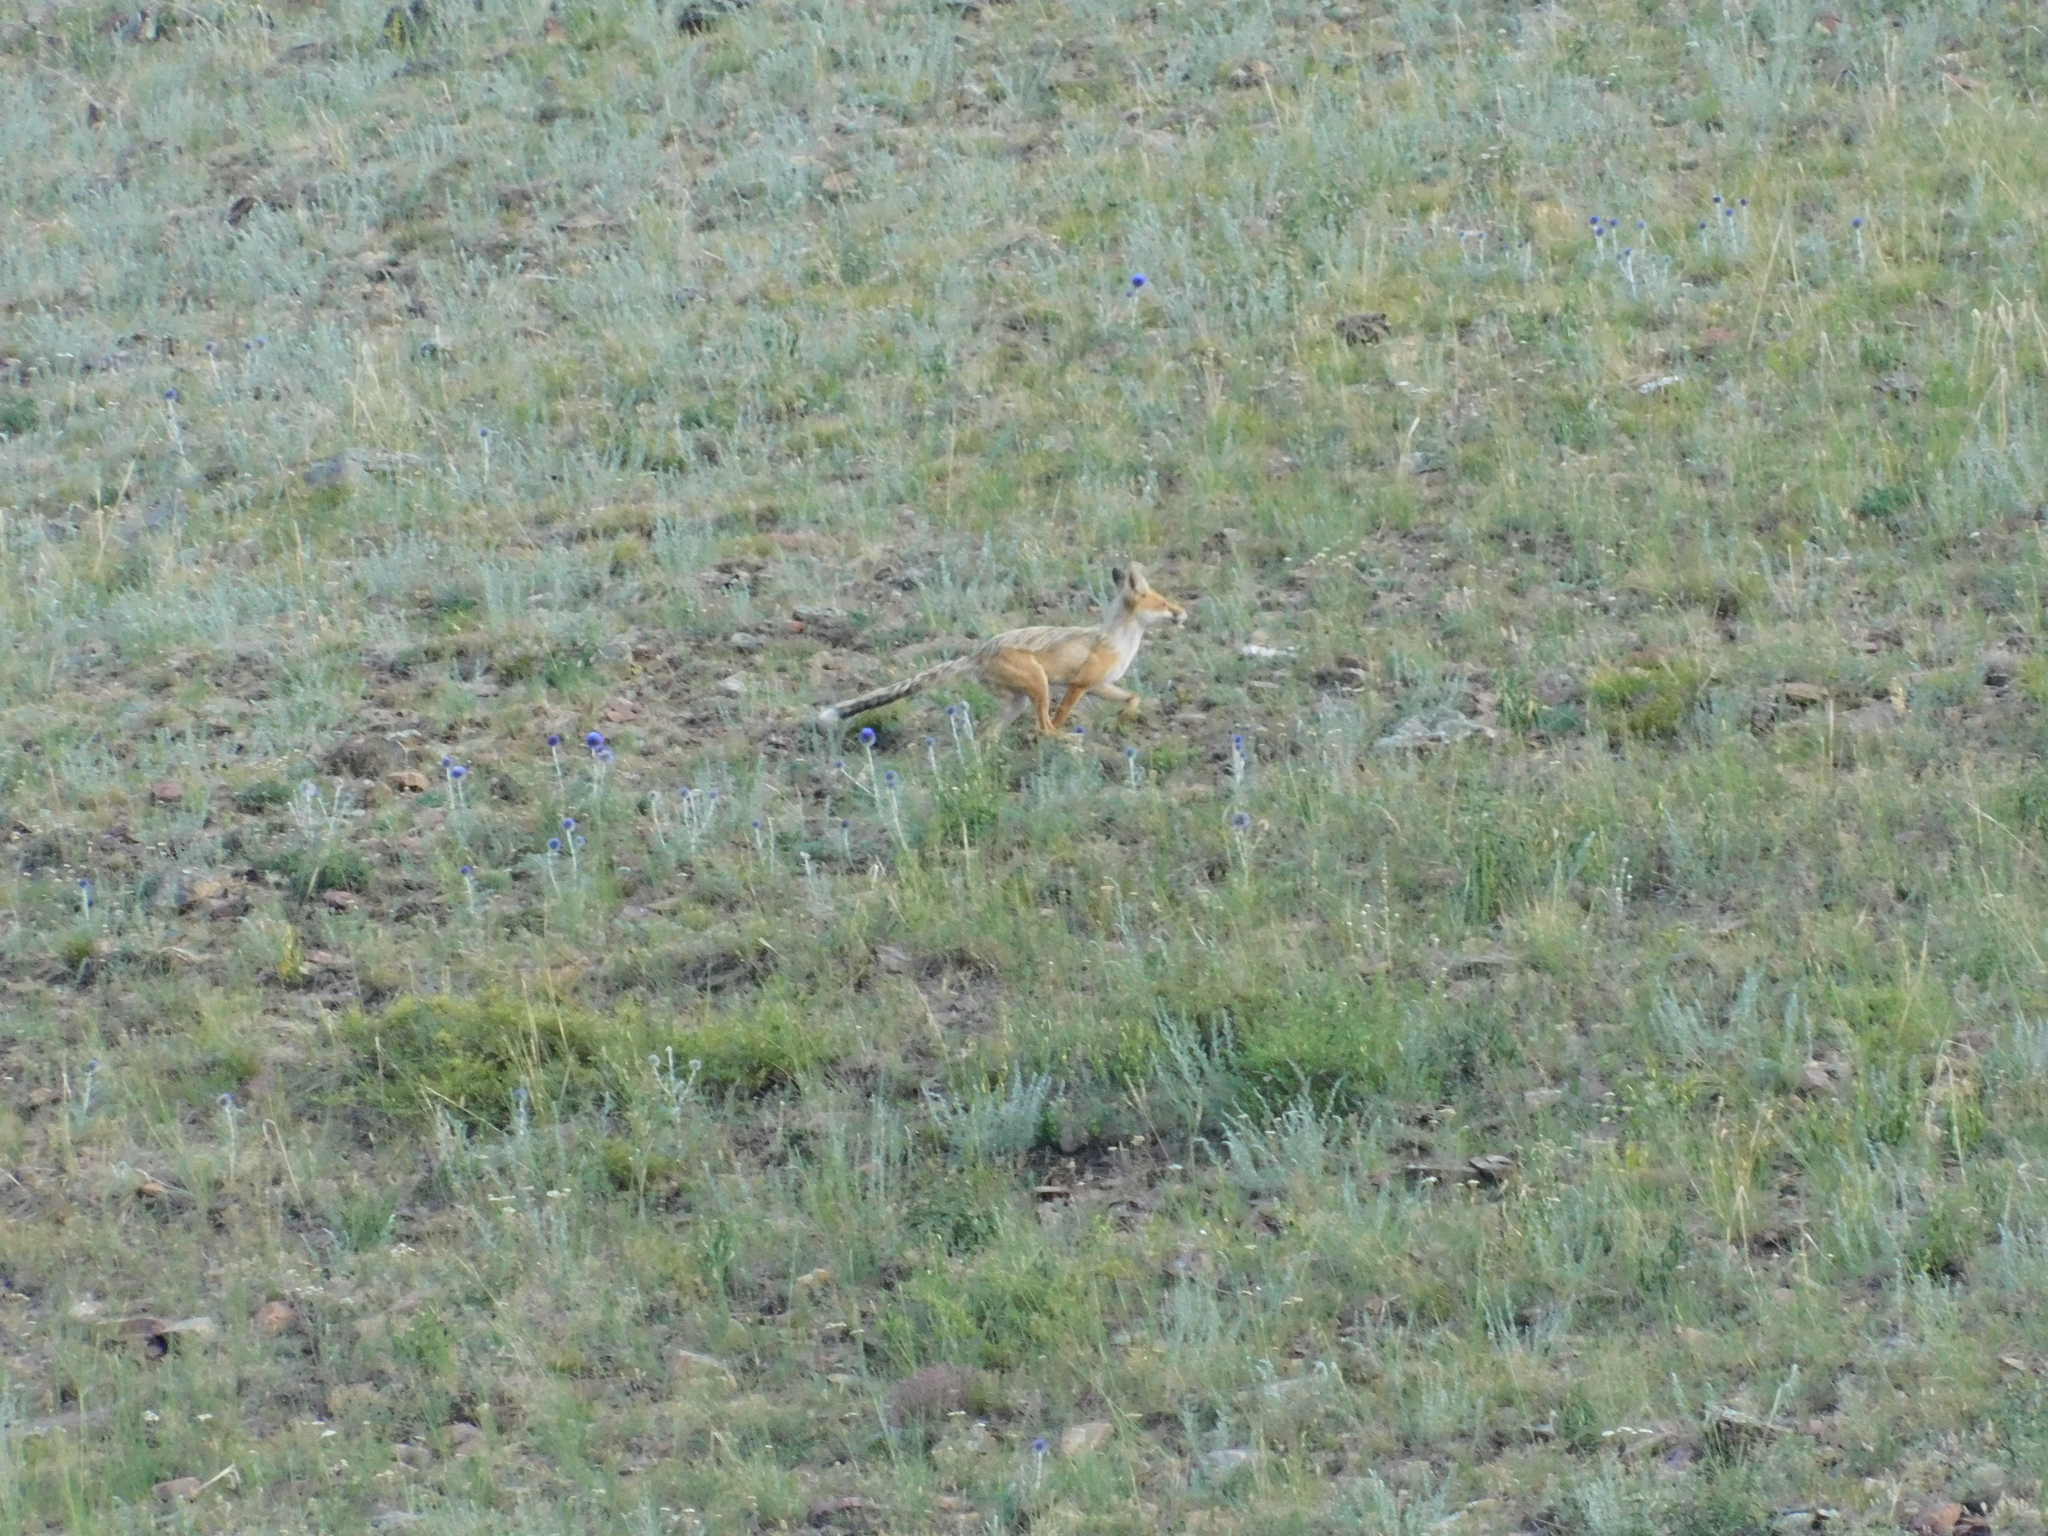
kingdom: Animalia
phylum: Chordata
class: Mammalia
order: Carnivora
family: Canidae
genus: Vulpes
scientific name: Vulpes vulpes
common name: Red fox
